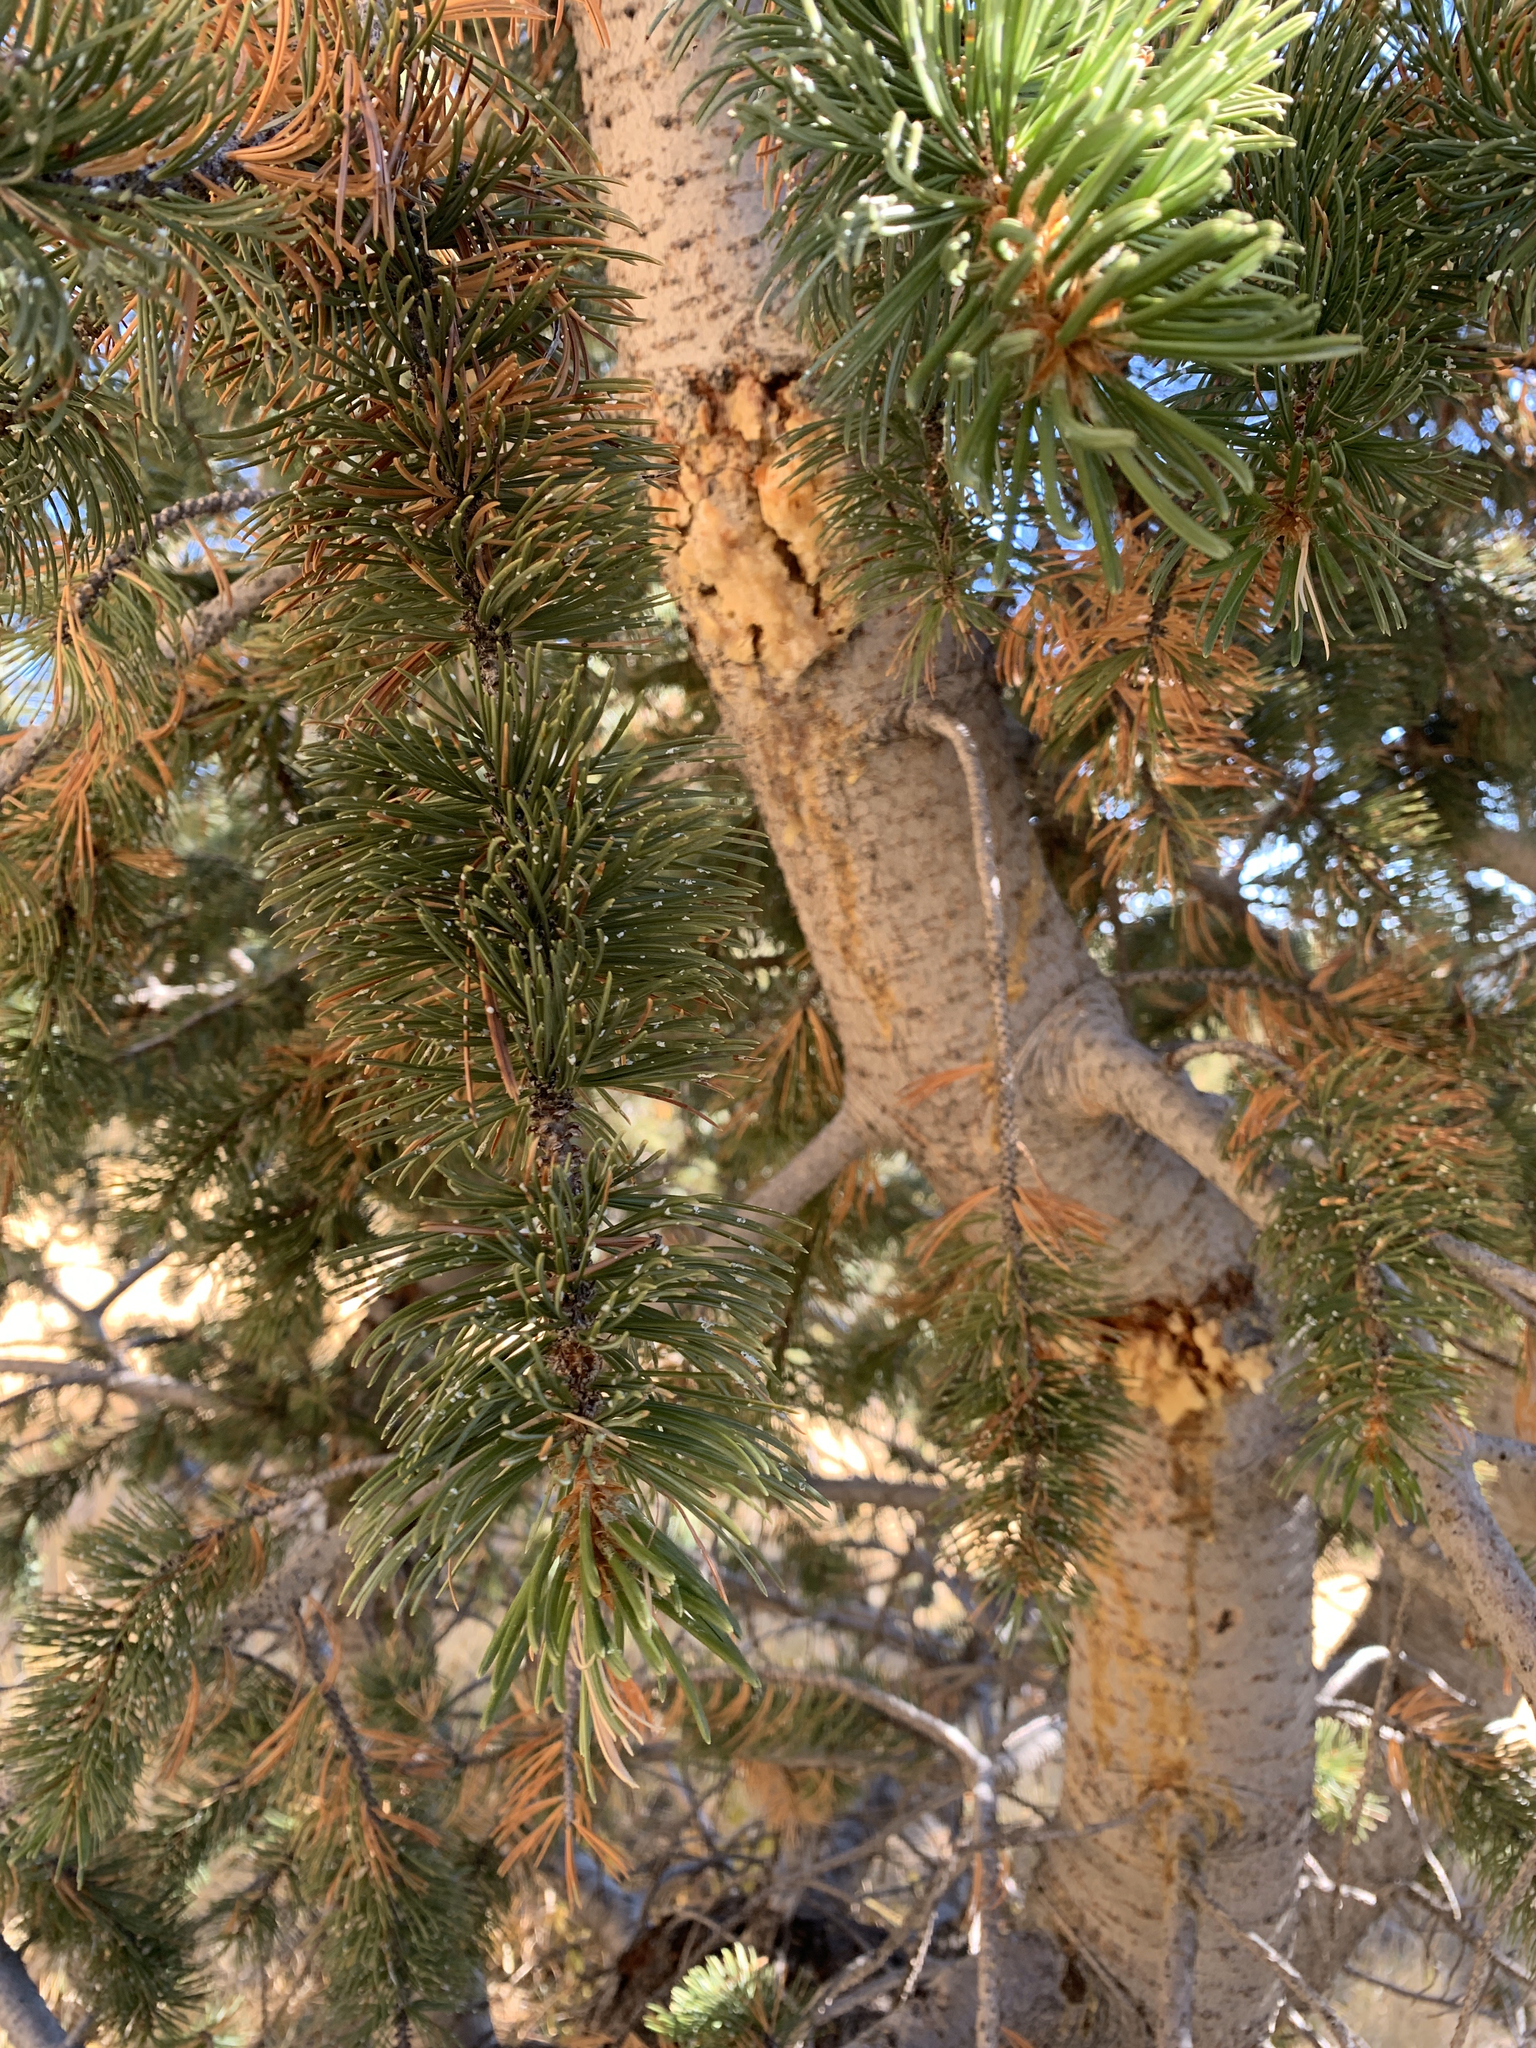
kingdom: Plantae
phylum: Tracheophyta
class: Pinopsida
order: Pinales
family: Pinaceae
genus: Pinus
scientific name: Pinus edulis
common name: Colorado pinyon
